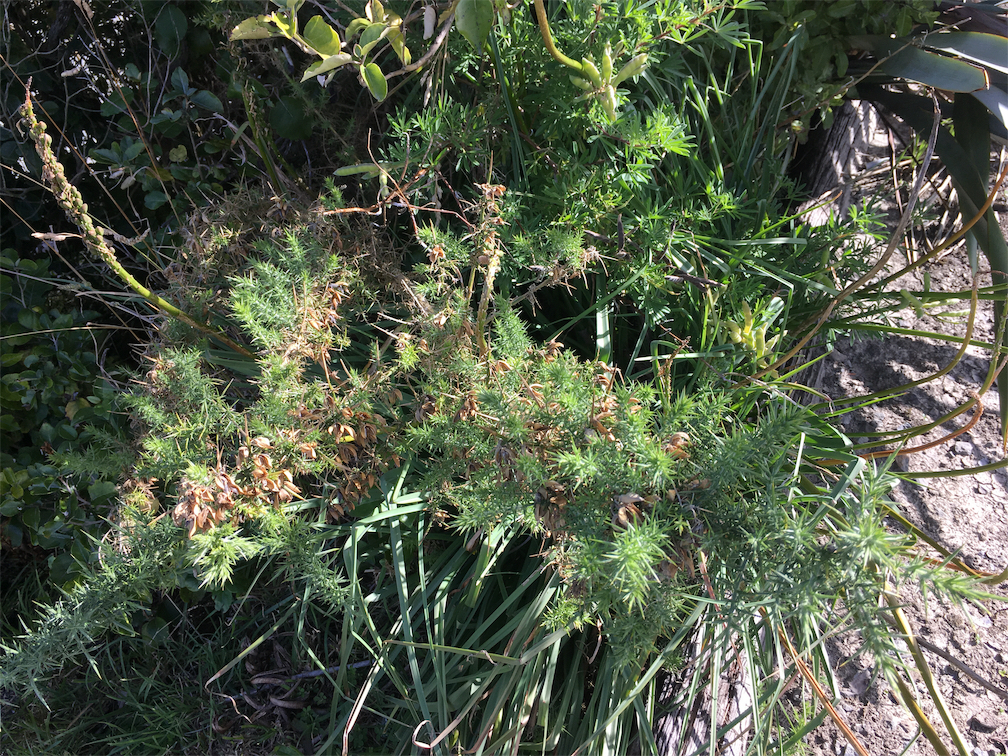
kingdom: Plantae
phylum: Tracheophyta
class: Magnoliopsida
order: Fabales
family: Fabaceae
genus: Ulex
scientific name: Ulex europaeus
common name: Common gorse
